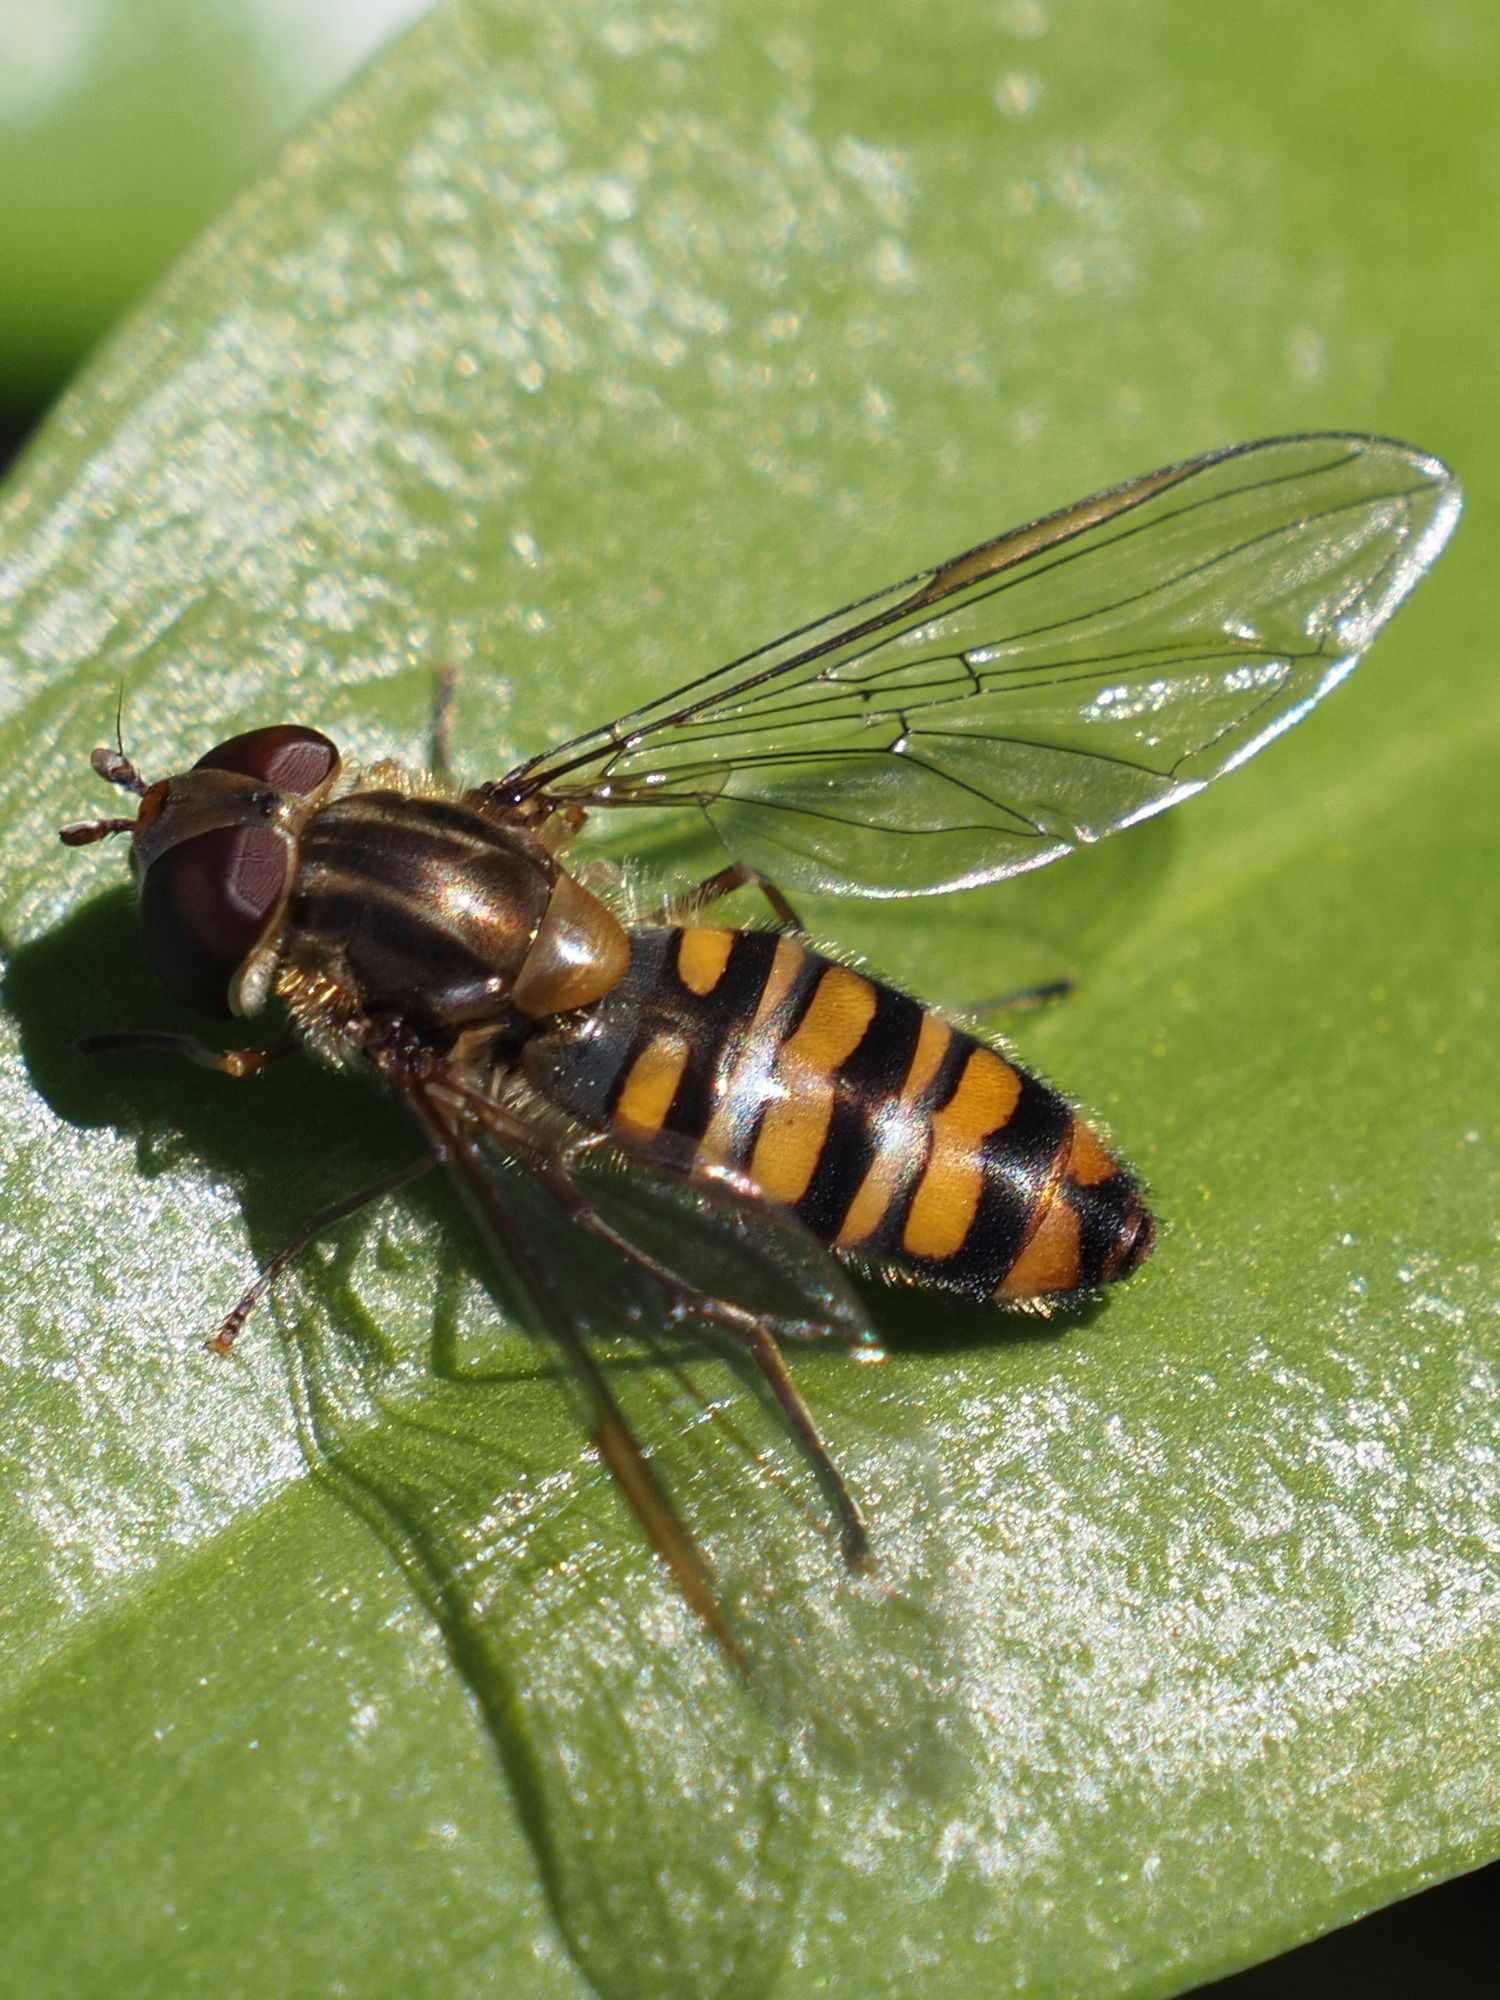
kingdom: Animalia
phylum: Arthropoda
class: Insecta
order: Diptera
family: Syrphidae
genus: Episyrphus
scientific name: Episyrphus balteatus
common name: Marmalade hoverfly
